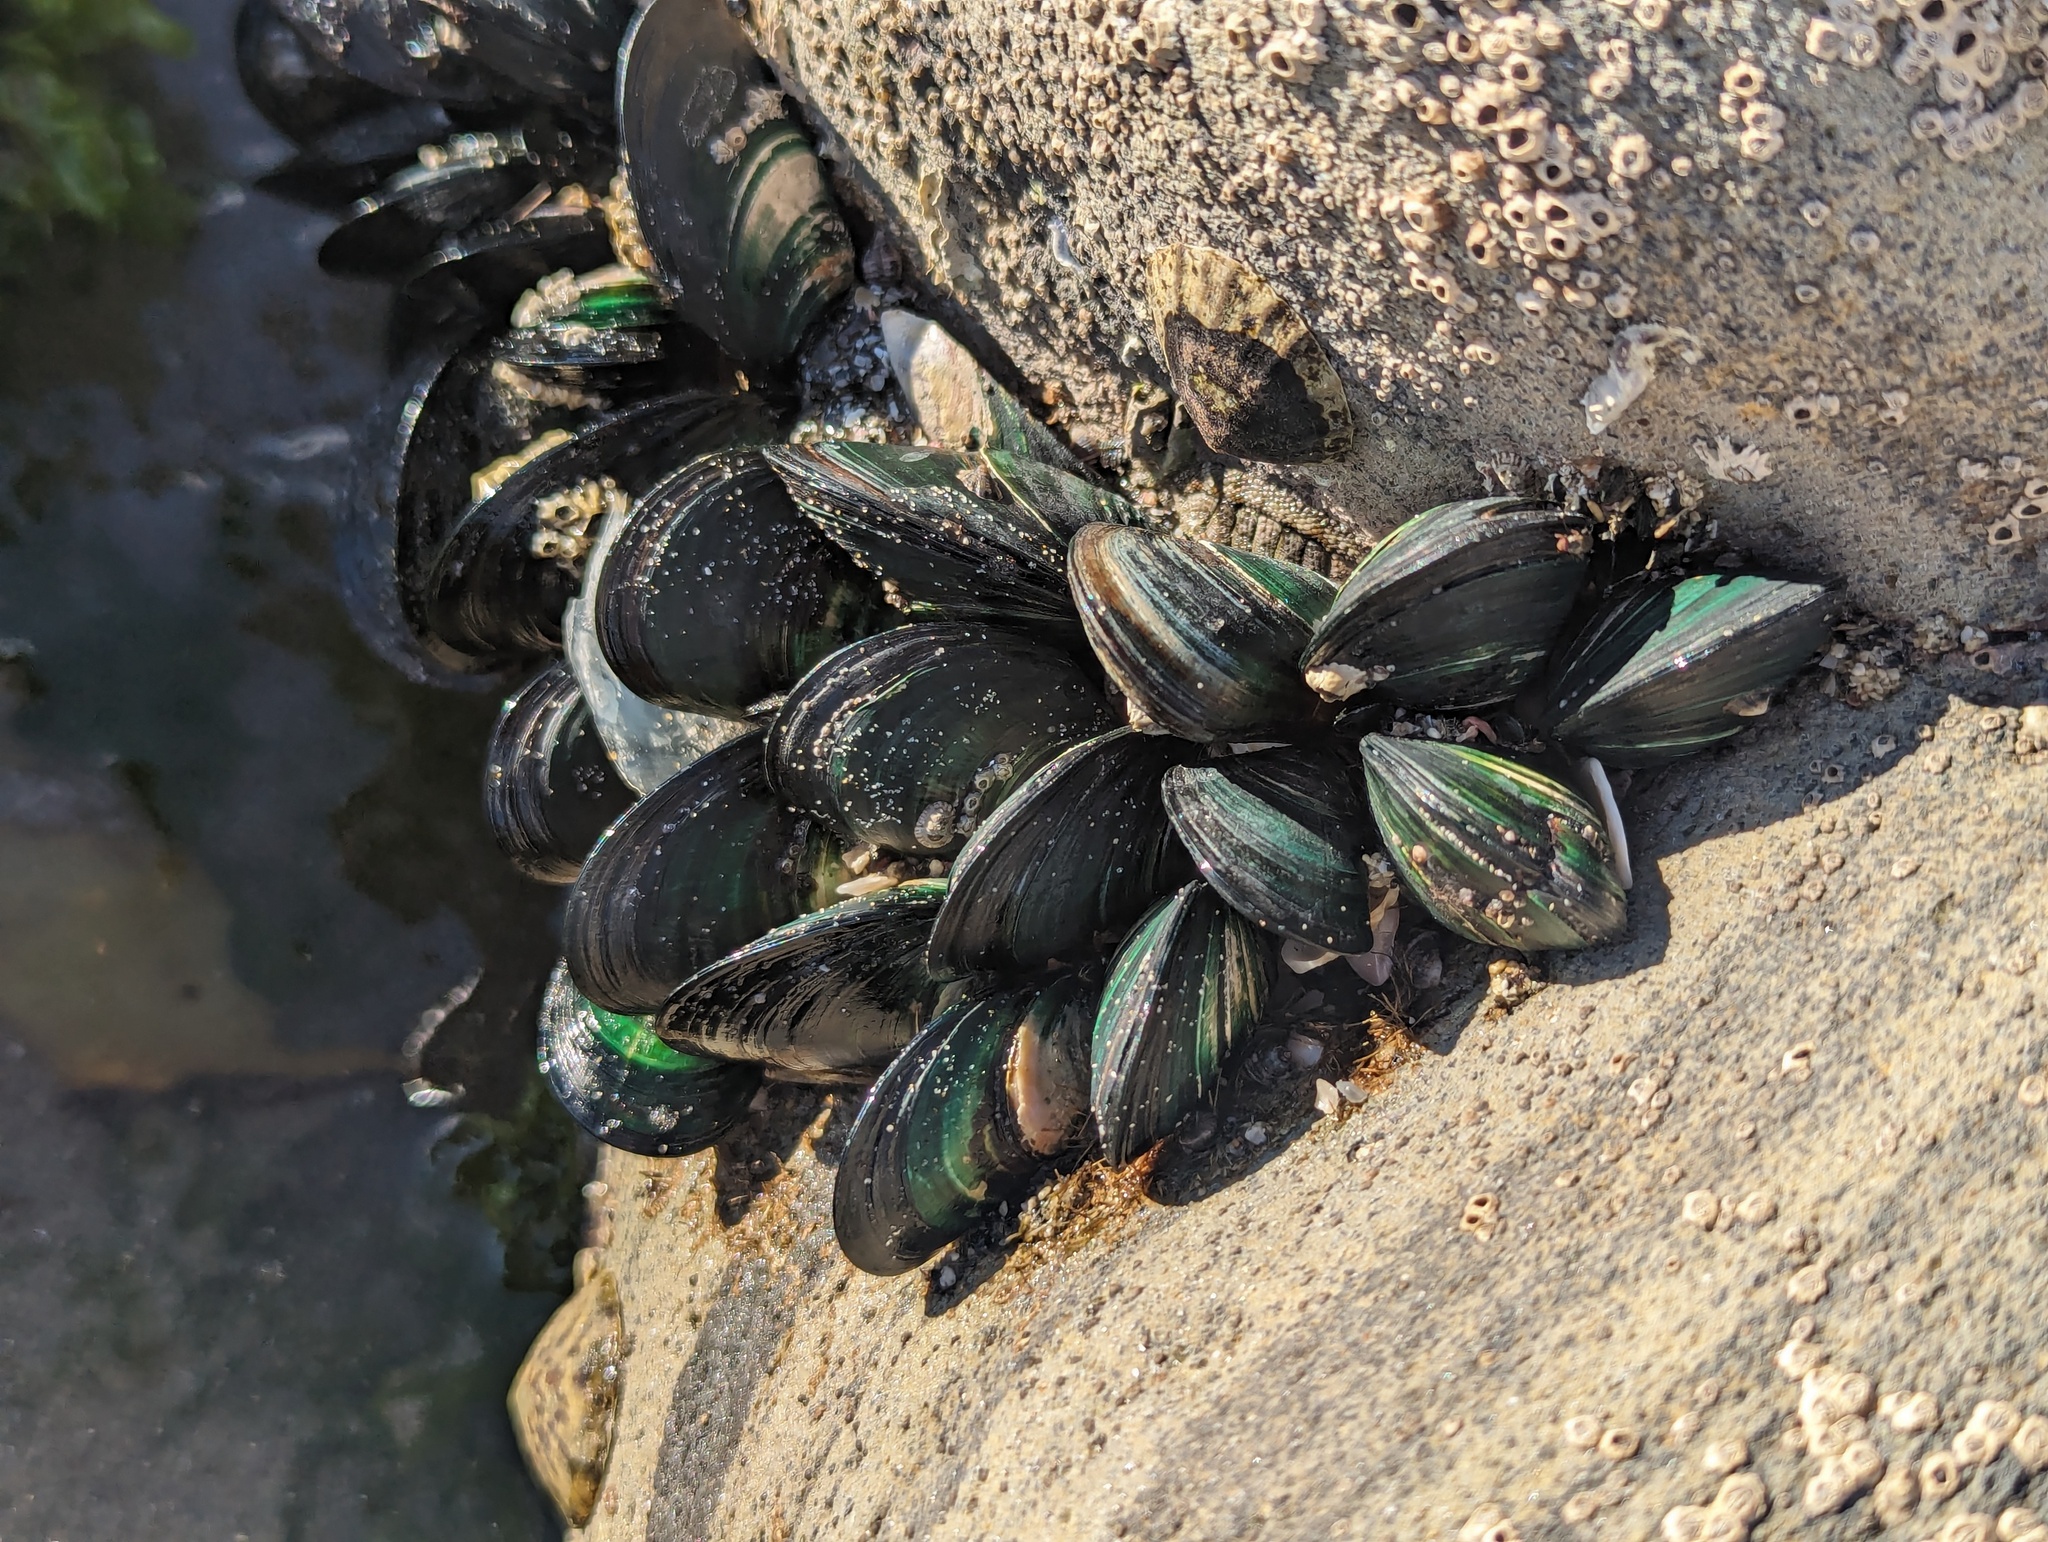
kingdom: Animalia
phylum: Mollusca
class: Bivalvia
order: Mytilida
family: Mytilidae
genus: Perna
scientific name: Perna canaliculus
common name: New zealand greenshelltm
